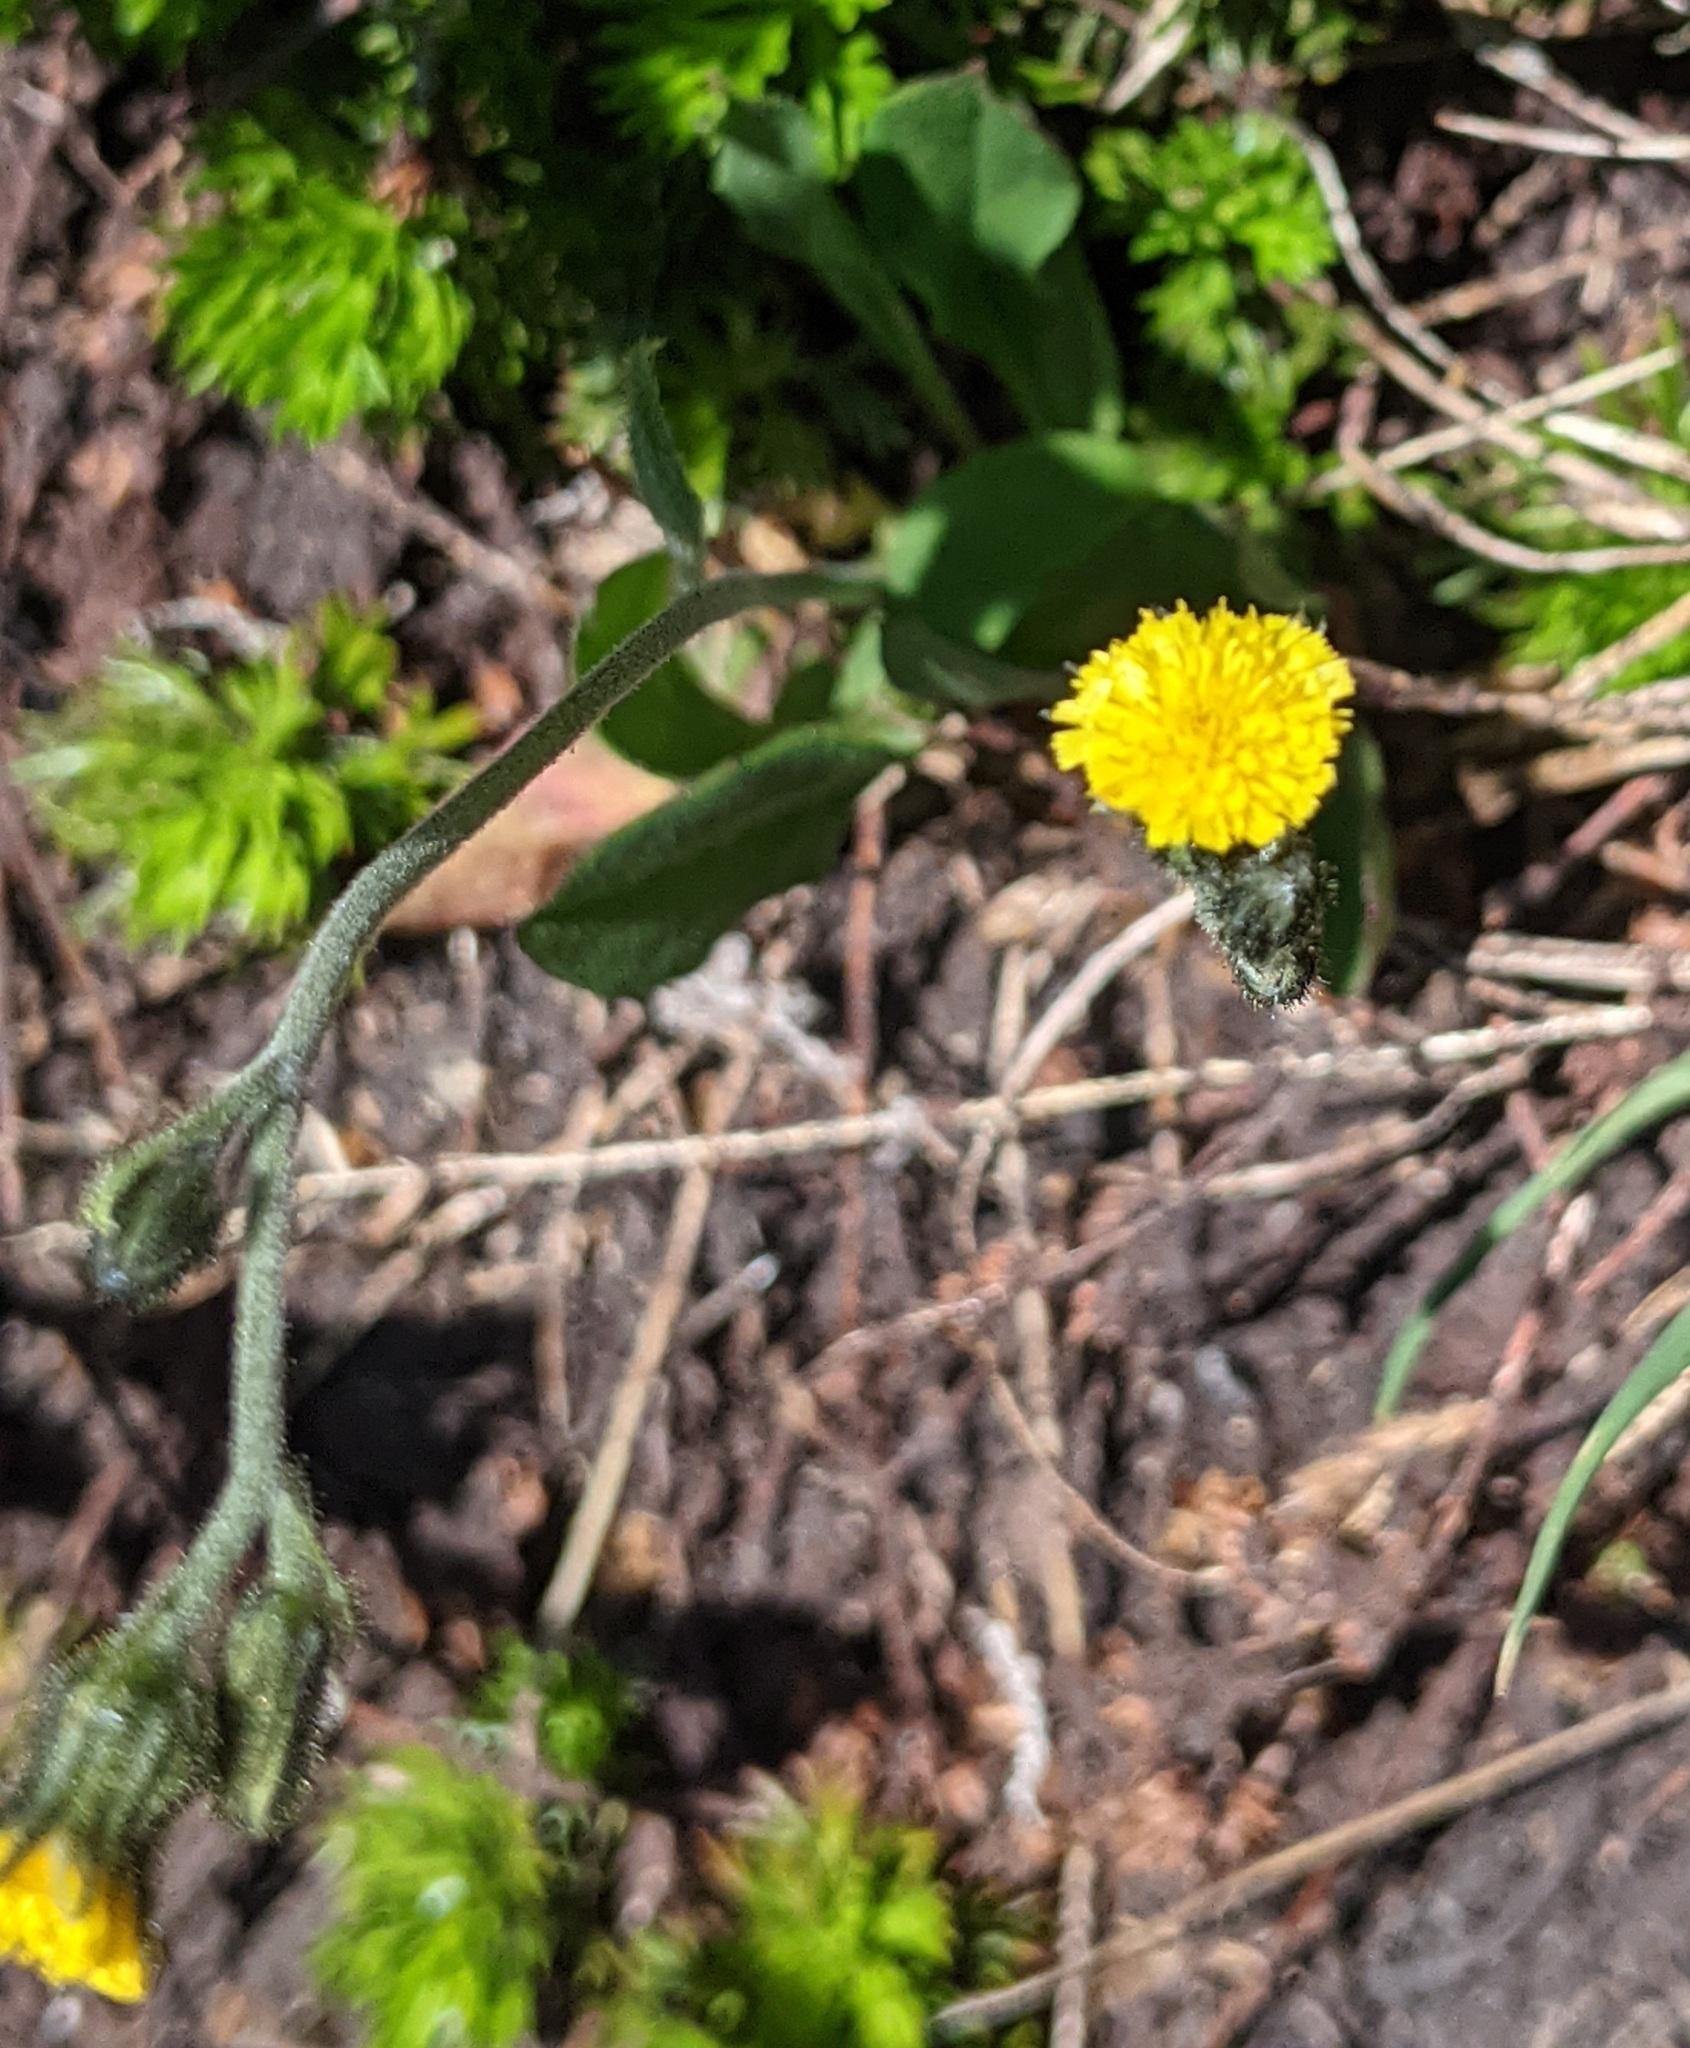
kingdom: Plantae
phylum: Tracheophyta
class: Magnoliopsida
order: Asterales
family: Asteraceae
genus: Hieracium
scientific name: Hieracium triste
